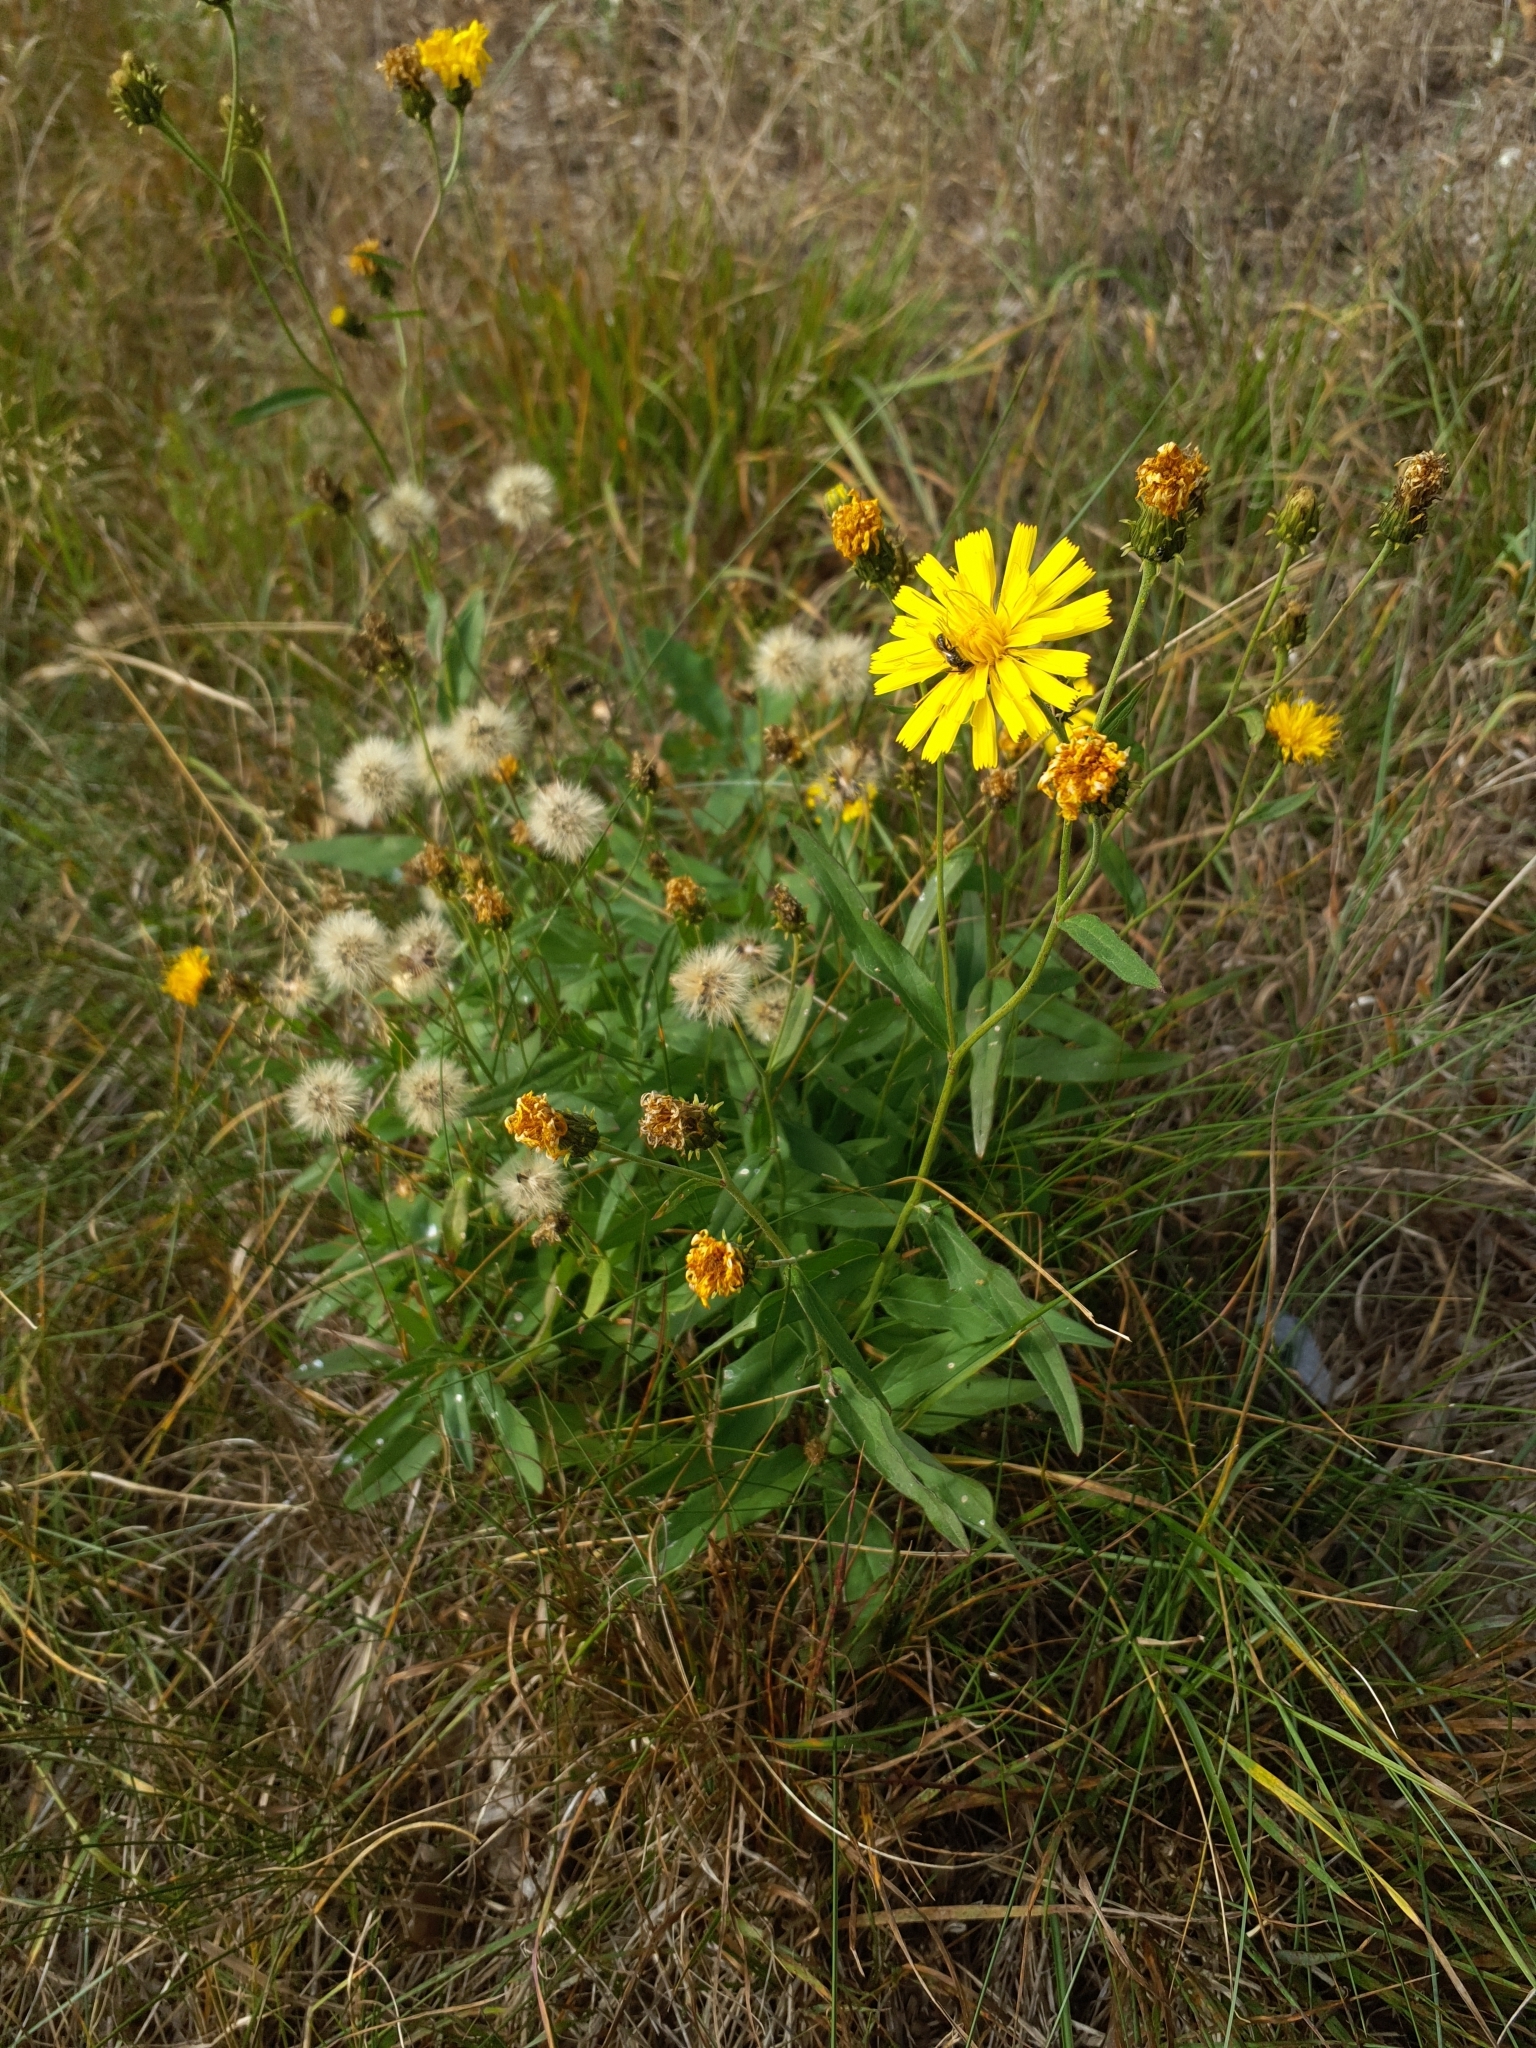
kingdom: Plantae
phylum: Tracheophyta
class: Magnoliopsida
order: Asterales
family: Asteraceae
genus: Hieracium
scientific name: Hieracium umbellatum
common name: Northern hawkweed
